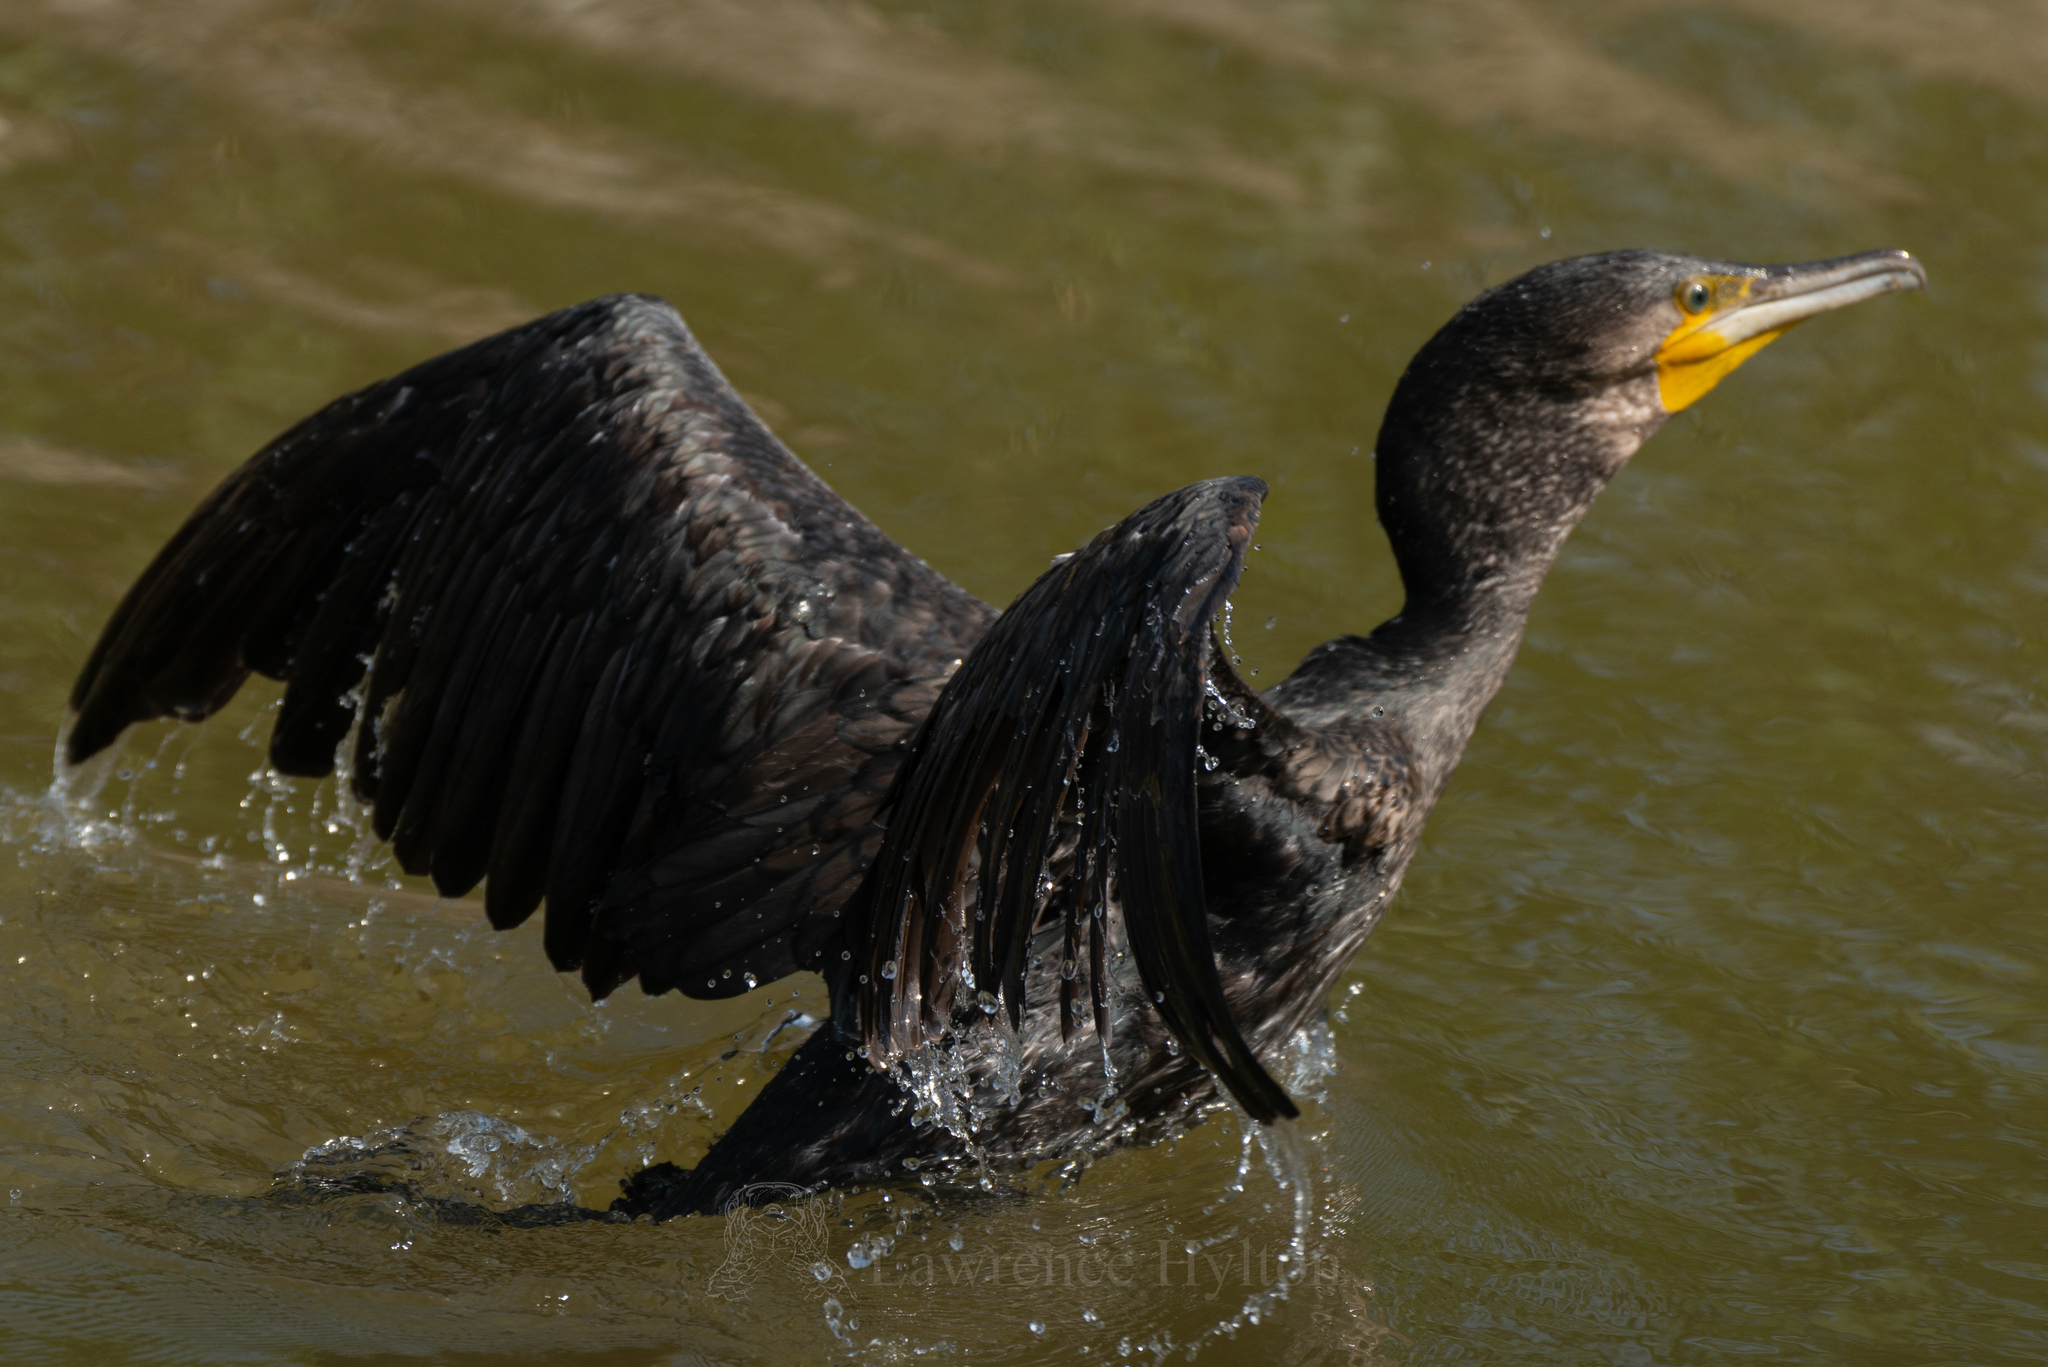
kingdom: Animalia
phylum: Chordata
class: Aves
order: Suliformes
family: Phalacrocoracidae
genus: Phalacrocorax
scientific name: Phalacrocorax carbo
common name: Great cormorant
